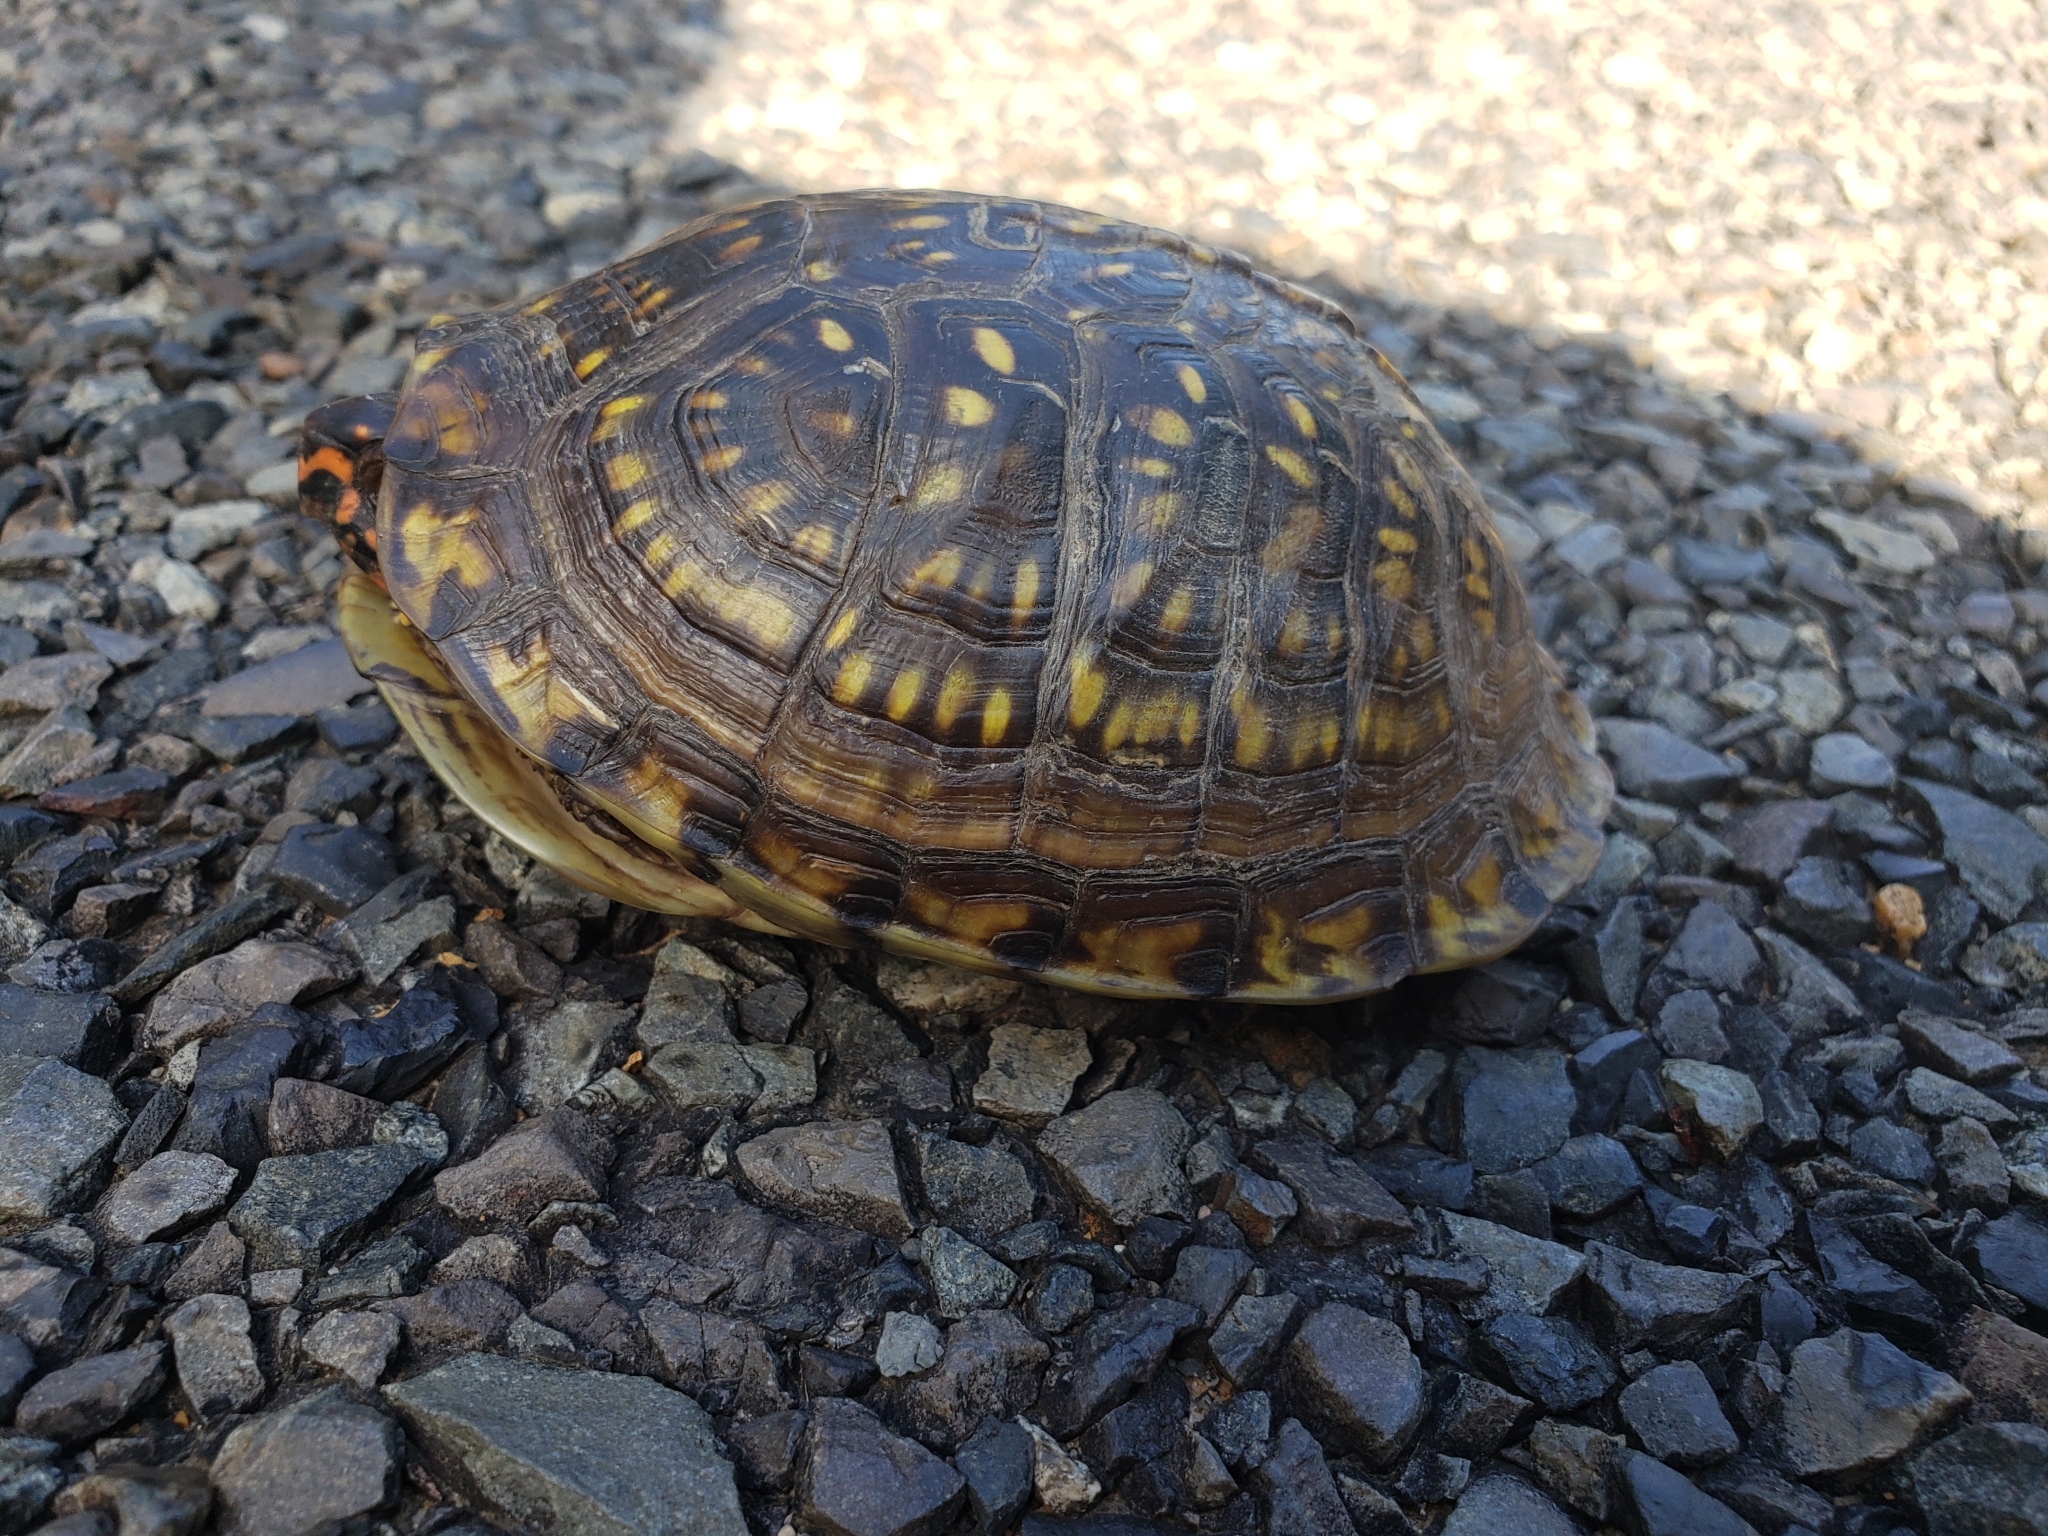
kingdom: Animalia
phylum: Chordata
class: Testudines
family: Emydidae
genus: Terrapene
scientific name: Terrapene carolina
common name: Common box turtle
